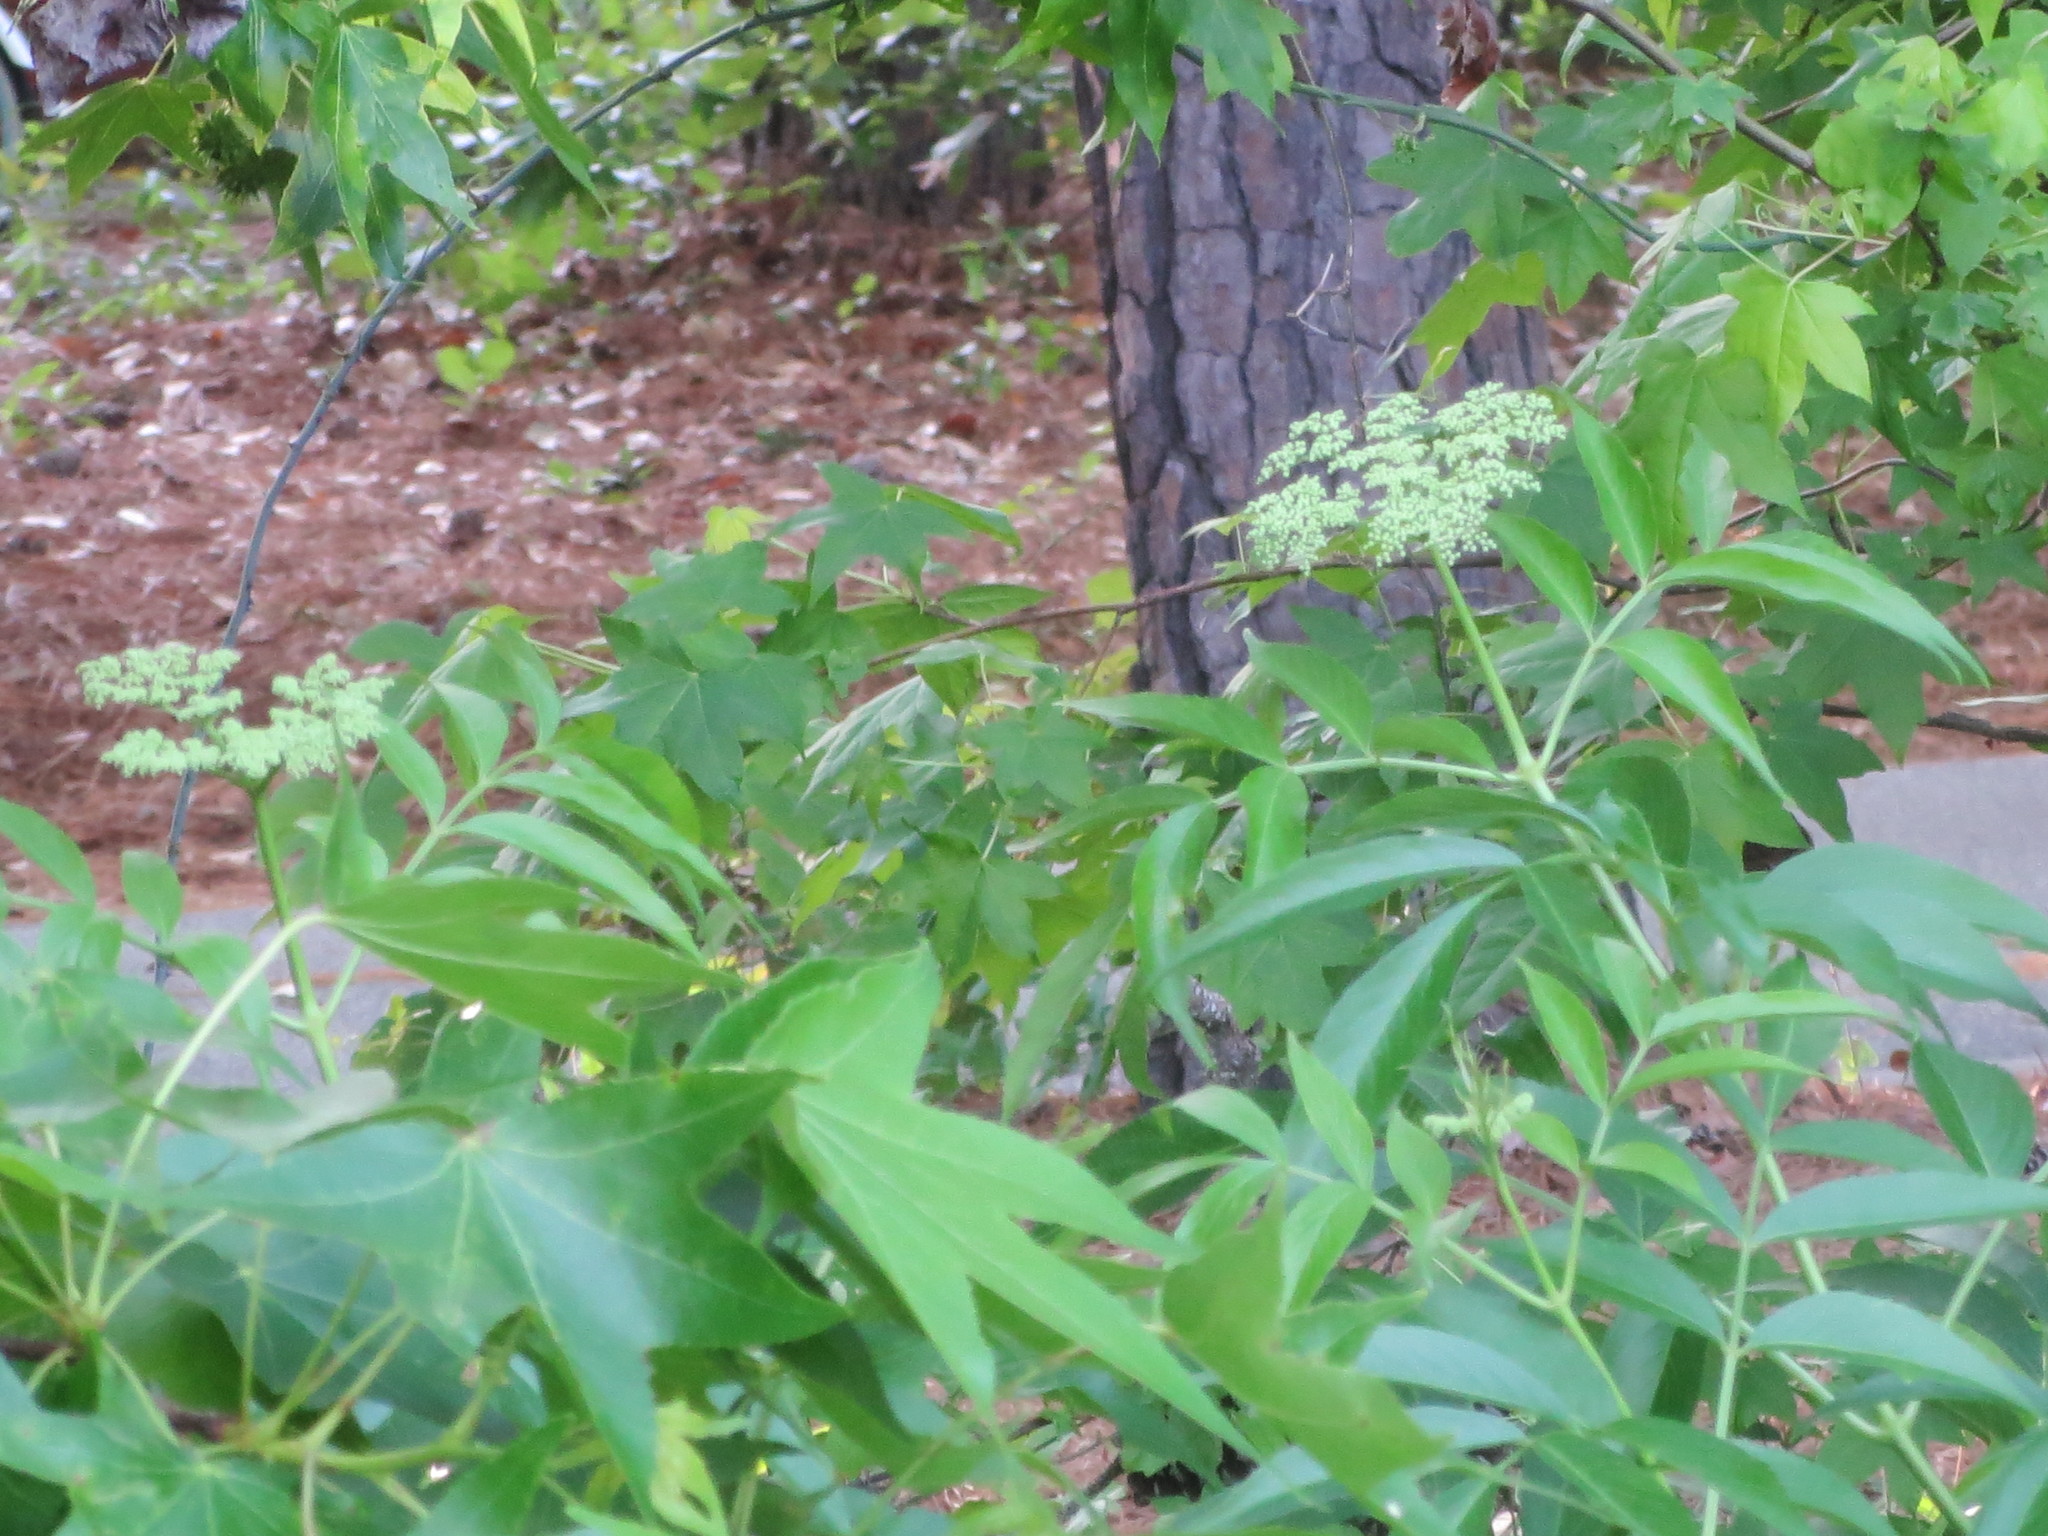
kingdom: Plantae
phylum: Tracheophyta
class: Magnoliopsida
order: Dipsacales
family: Viburnaceae
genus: Sambucus
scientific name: Sambucus canadensis
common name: American elder
